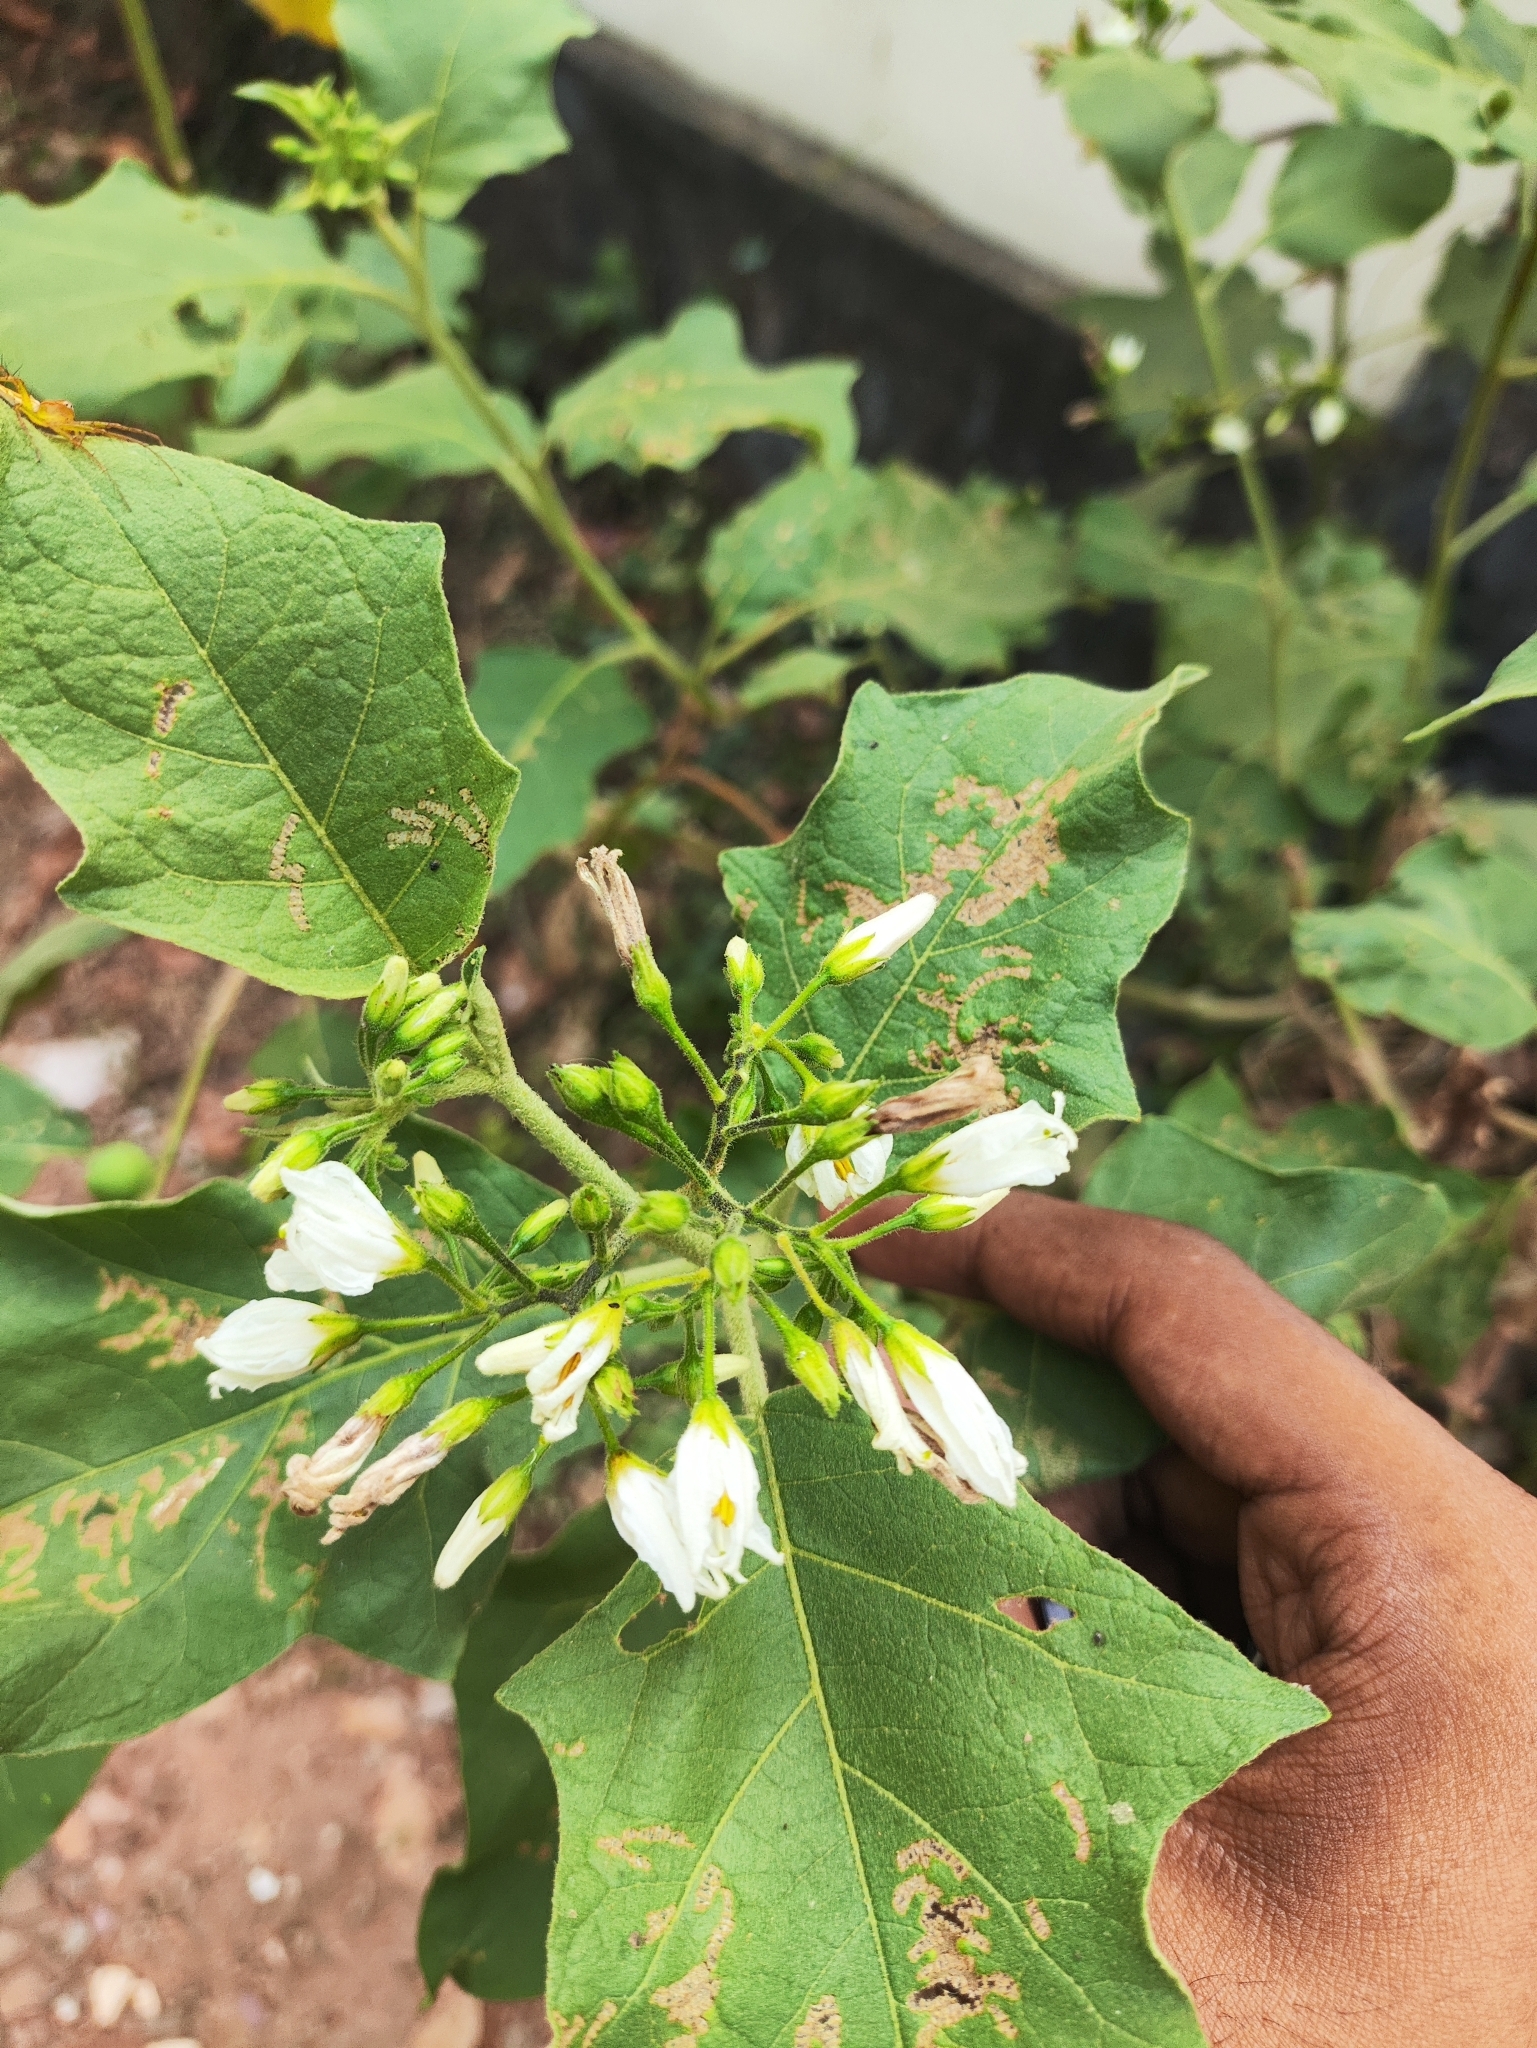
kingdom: Plantae
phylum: Tracheophyta
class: Magnoliopsida
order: Solanales
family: Solanaceae
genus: Solanum
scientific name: Solanum torvum
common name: Turkey berry
